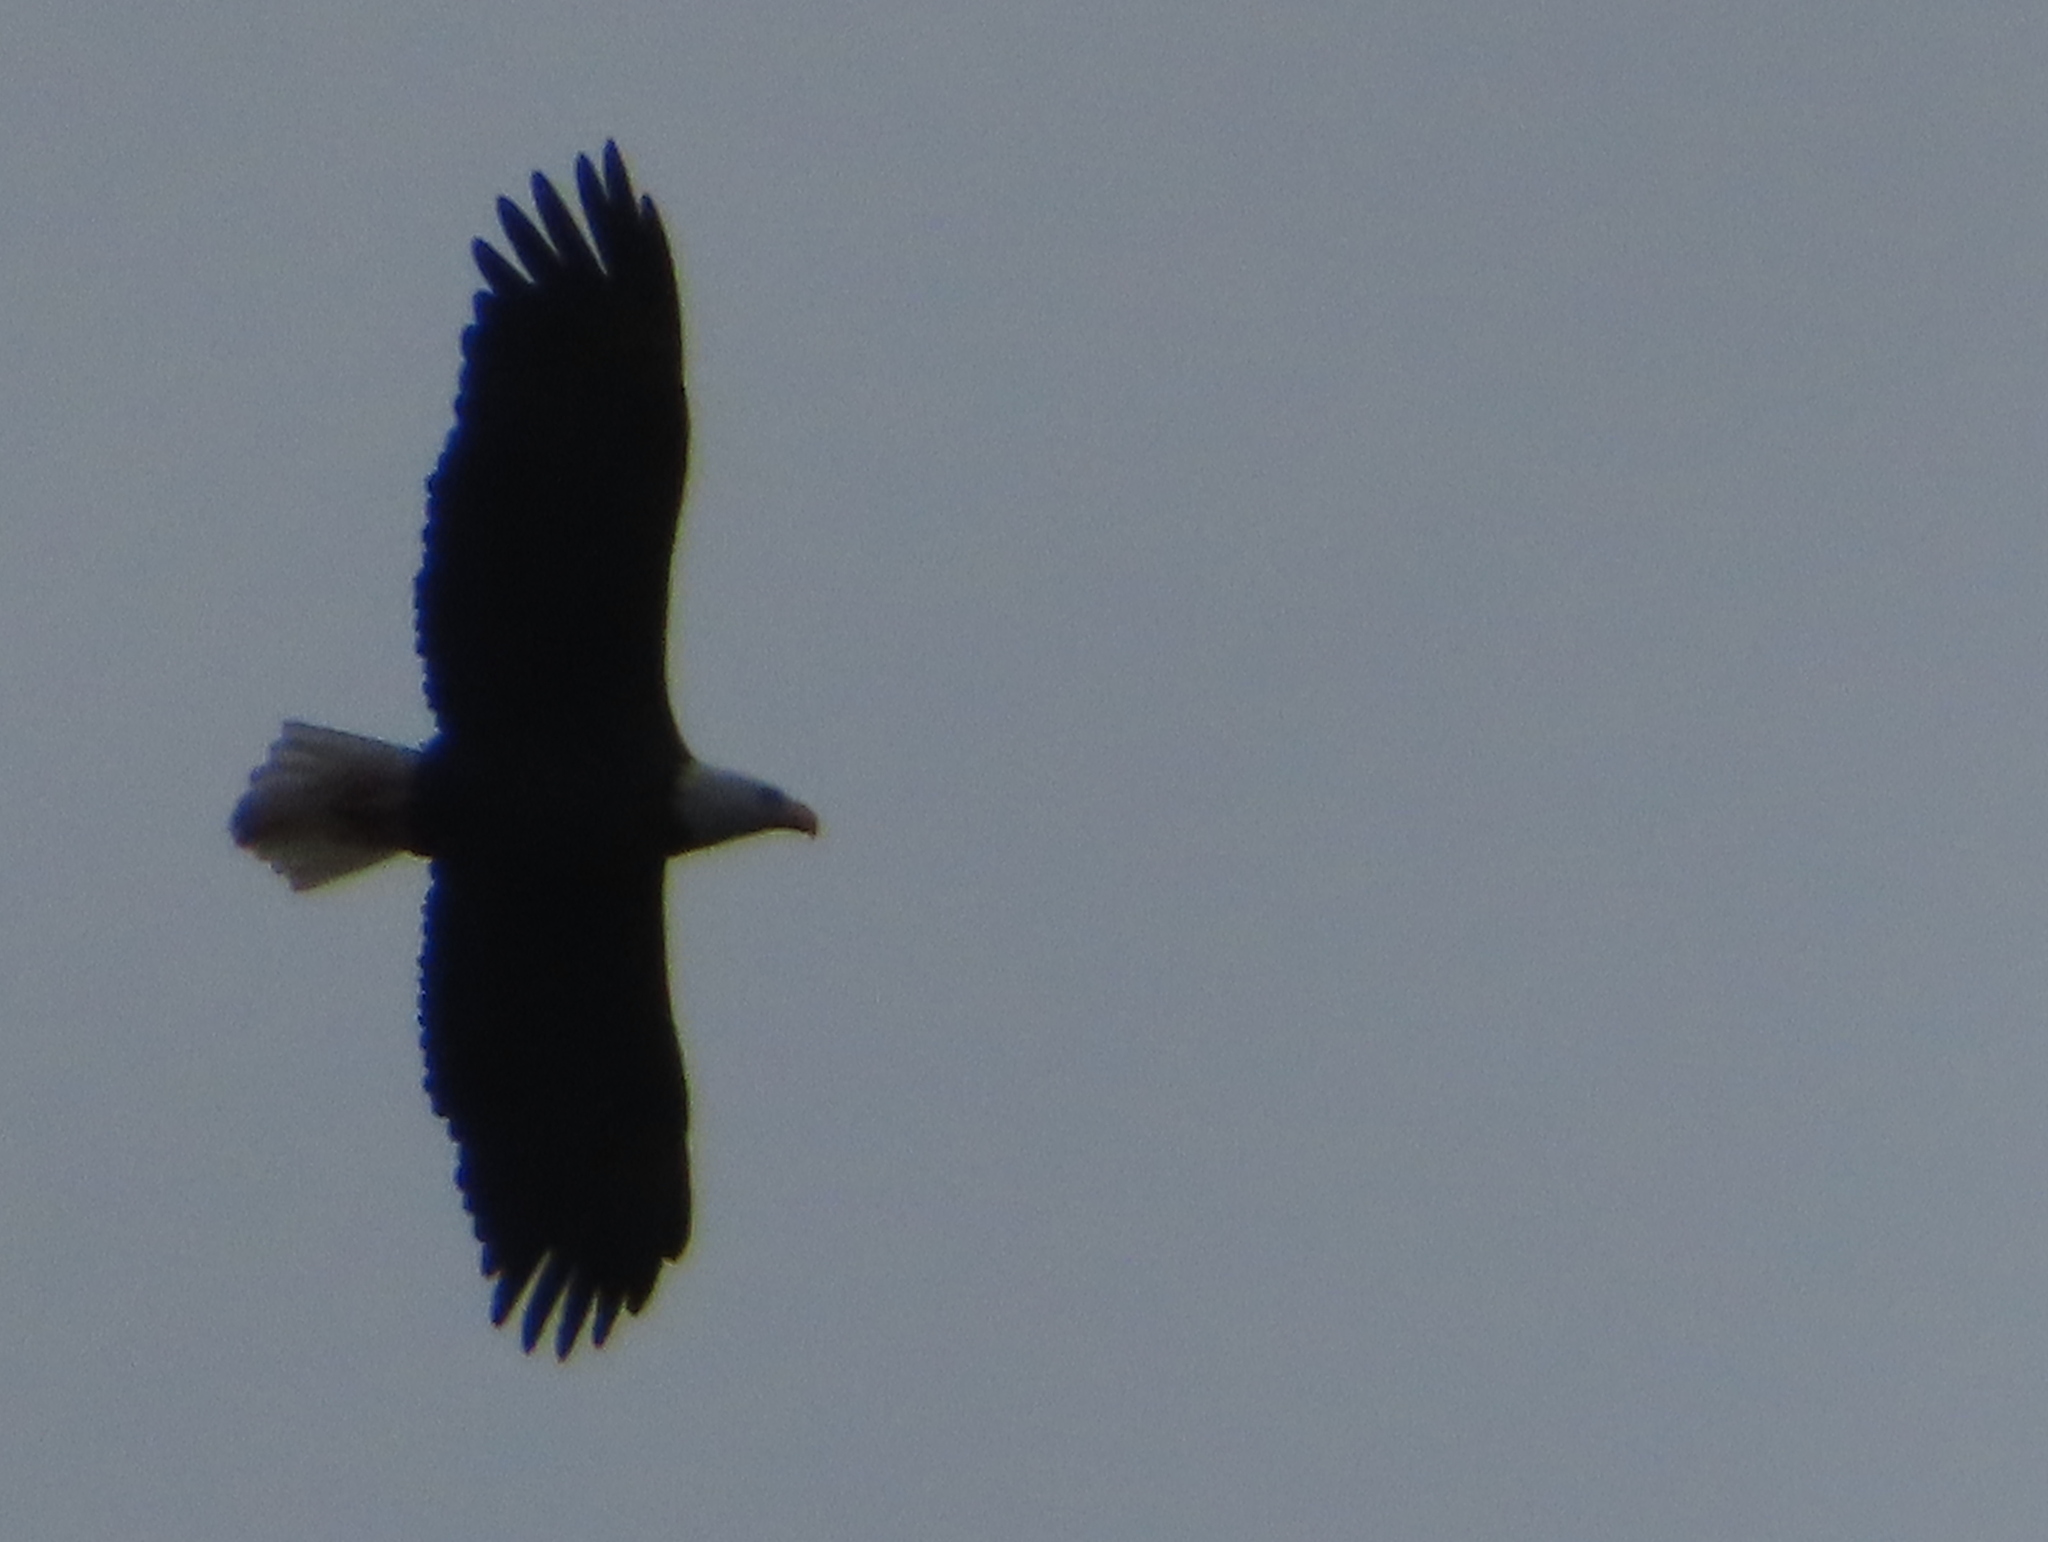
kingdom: Animalia
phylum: Chordata
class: Aves
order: Accipitriformes
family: Accipitridae
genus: Haliaeetus
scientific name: Haliaeetus leucocephalus
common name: Bald eagle
